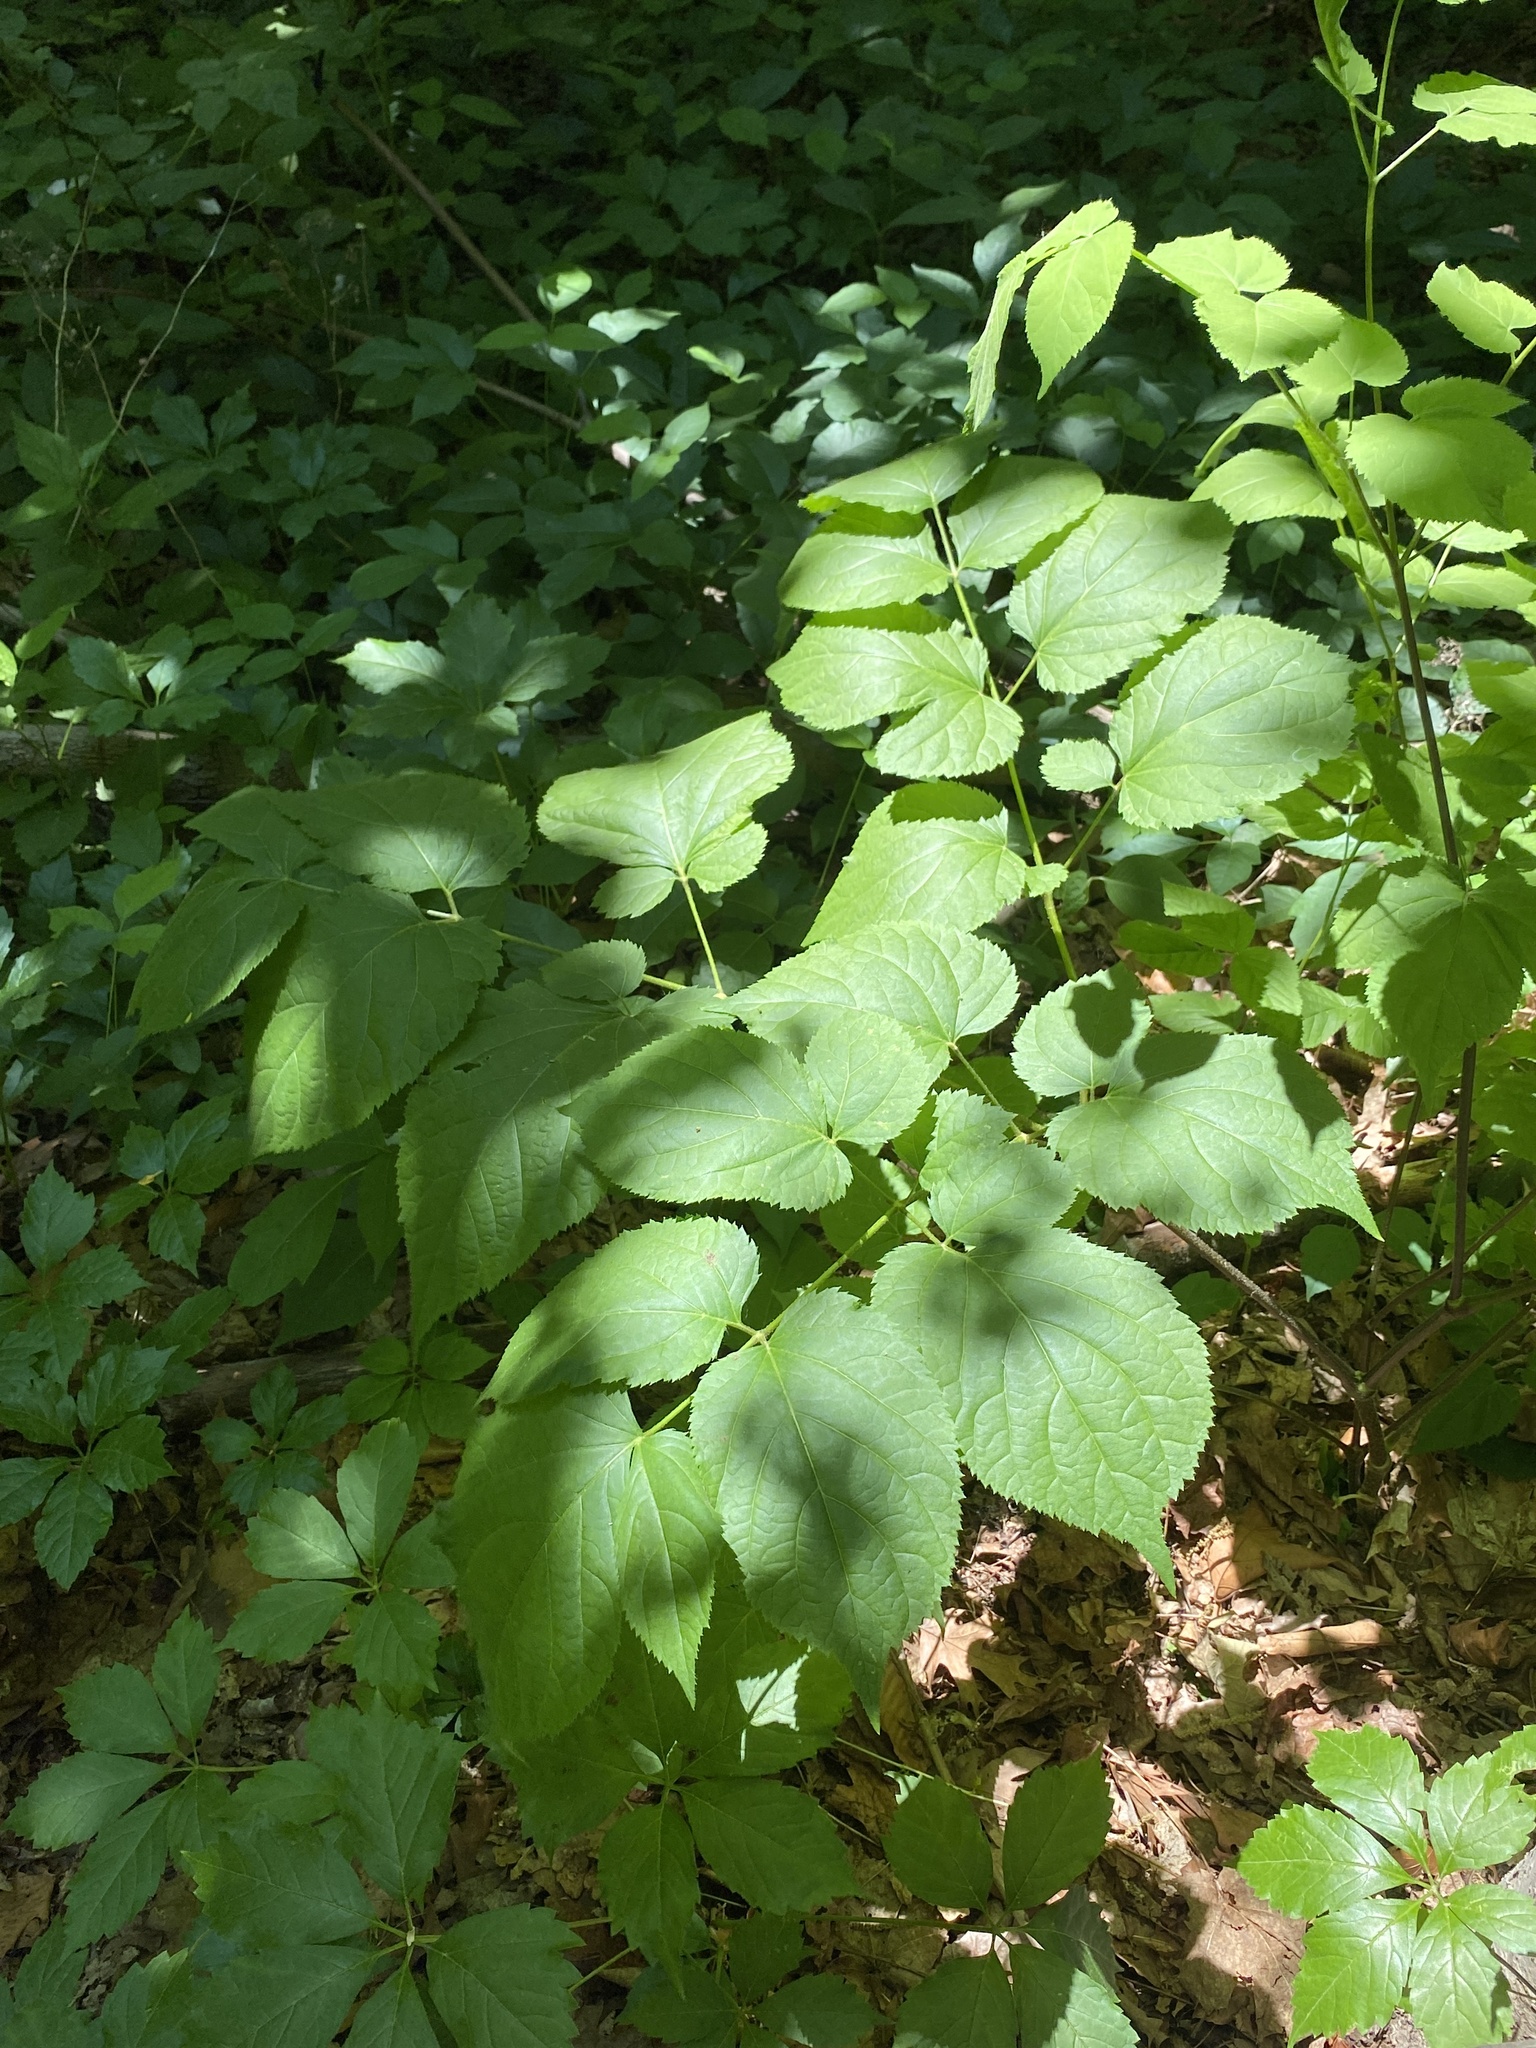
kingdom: Plantae
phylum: Tracheophyta
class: Magnoliopsida
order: Apiales
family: Araliaceae
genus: Aralia
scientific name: Aralia racemosa
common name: American-spikenard
